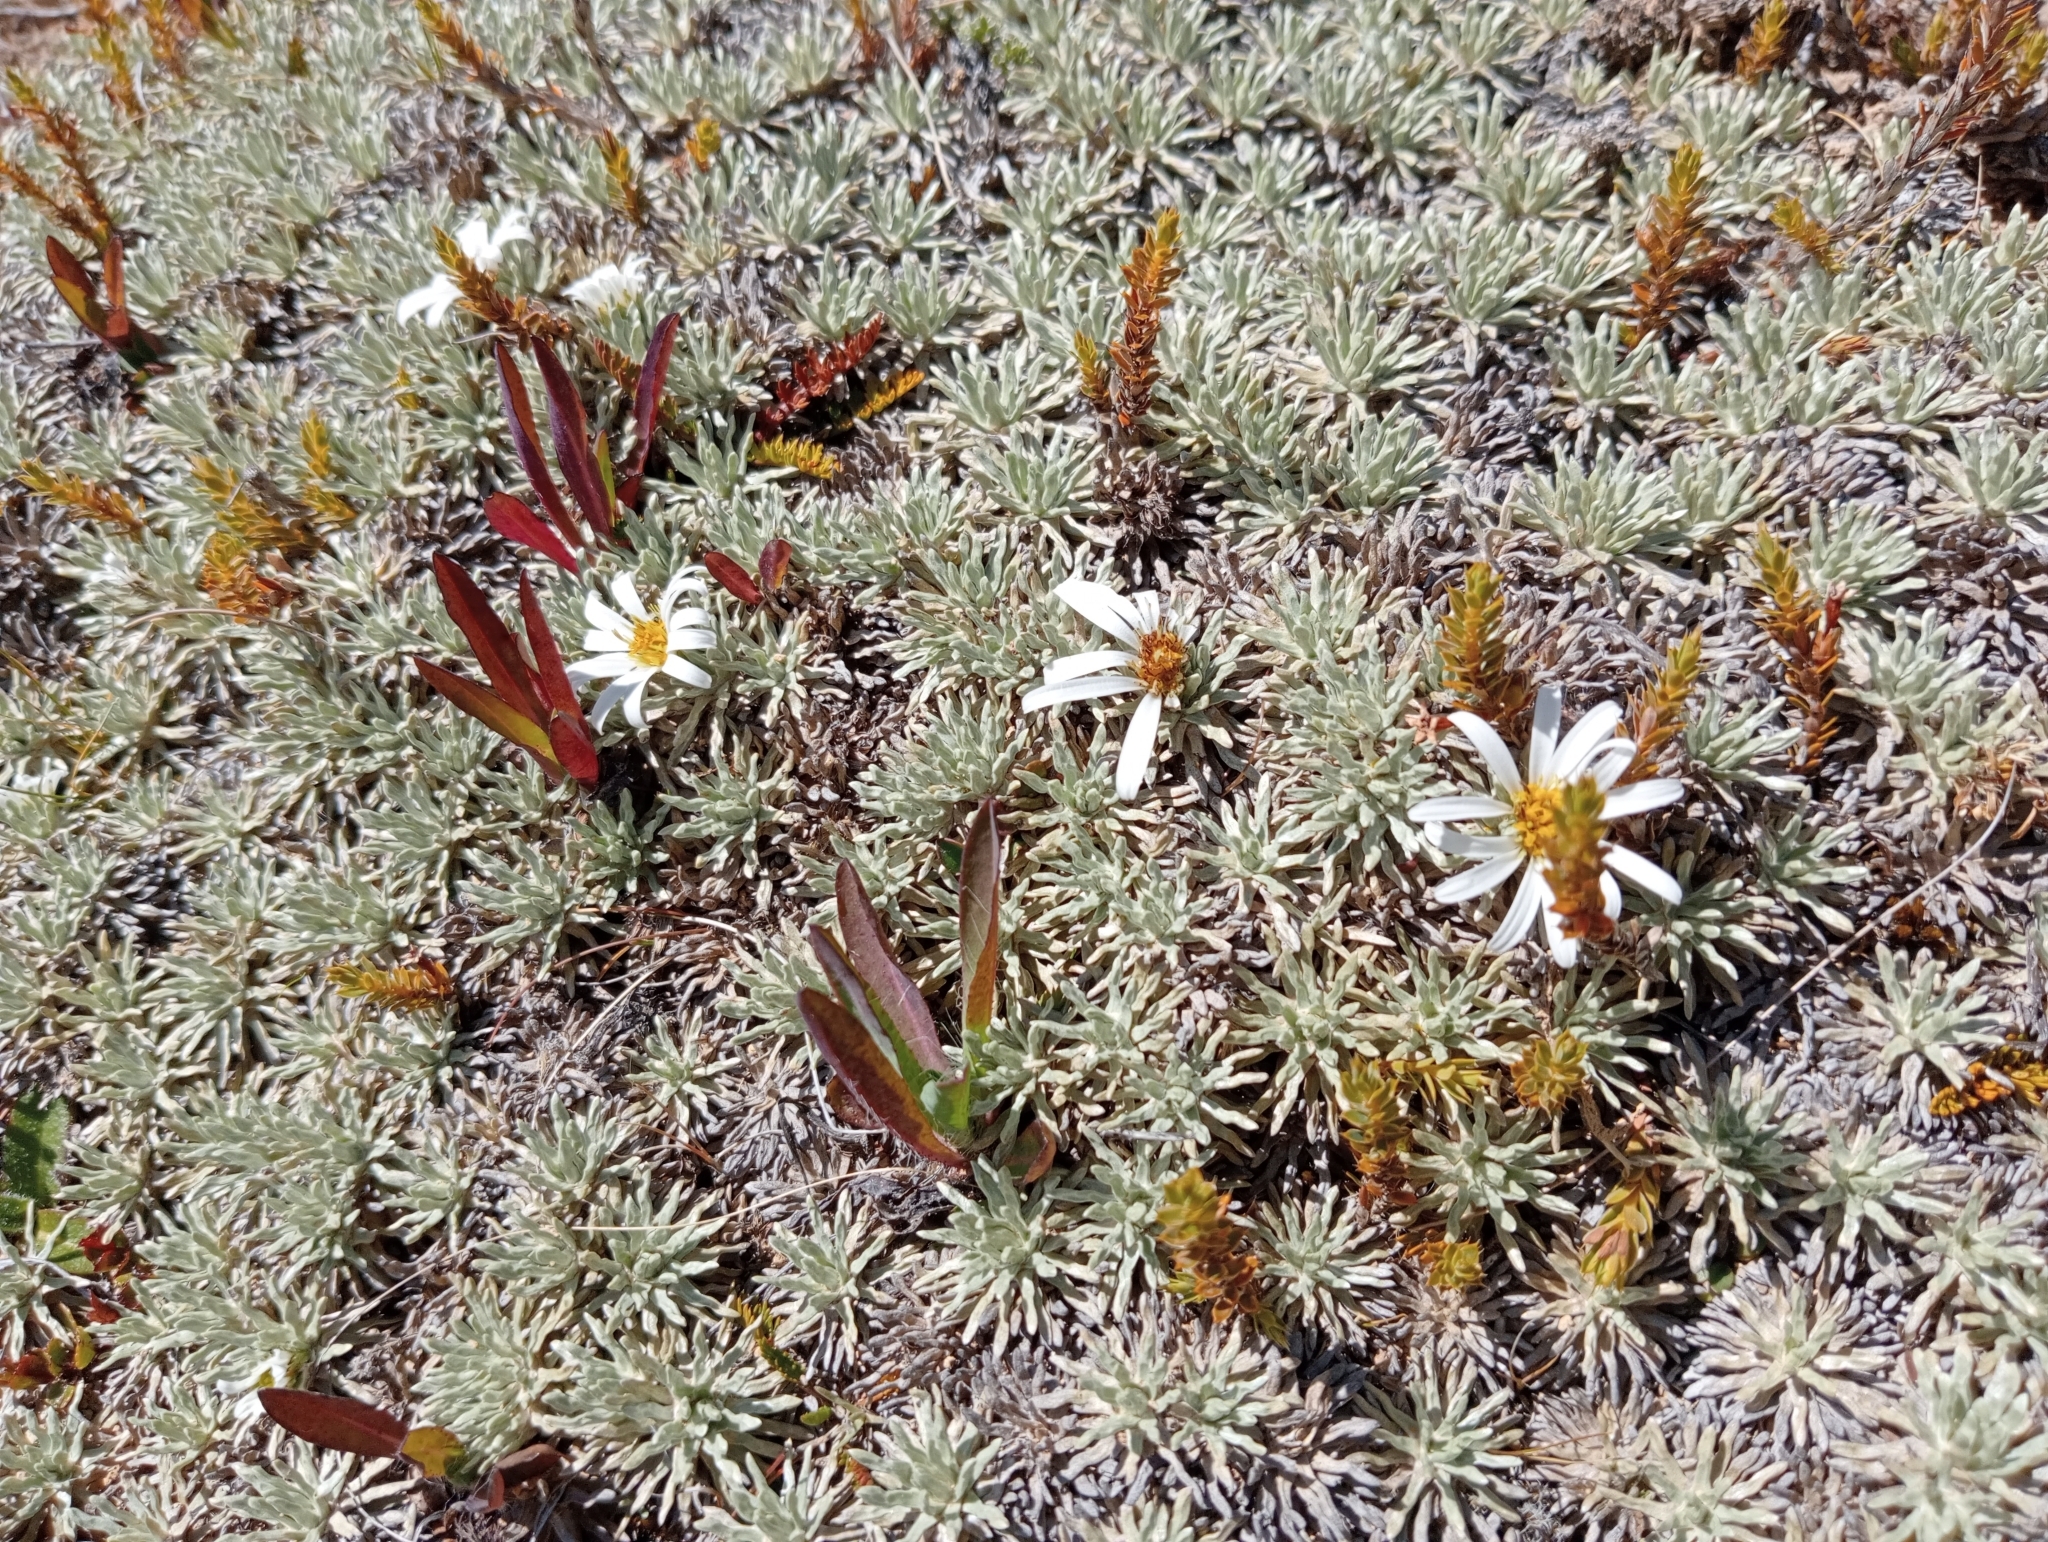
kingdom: Plantae
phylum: Tracheophyta
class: Magnoliopsida
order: Asterales
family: Asteraceae
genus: Celmisia
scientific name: Celmisia sessiliflora
